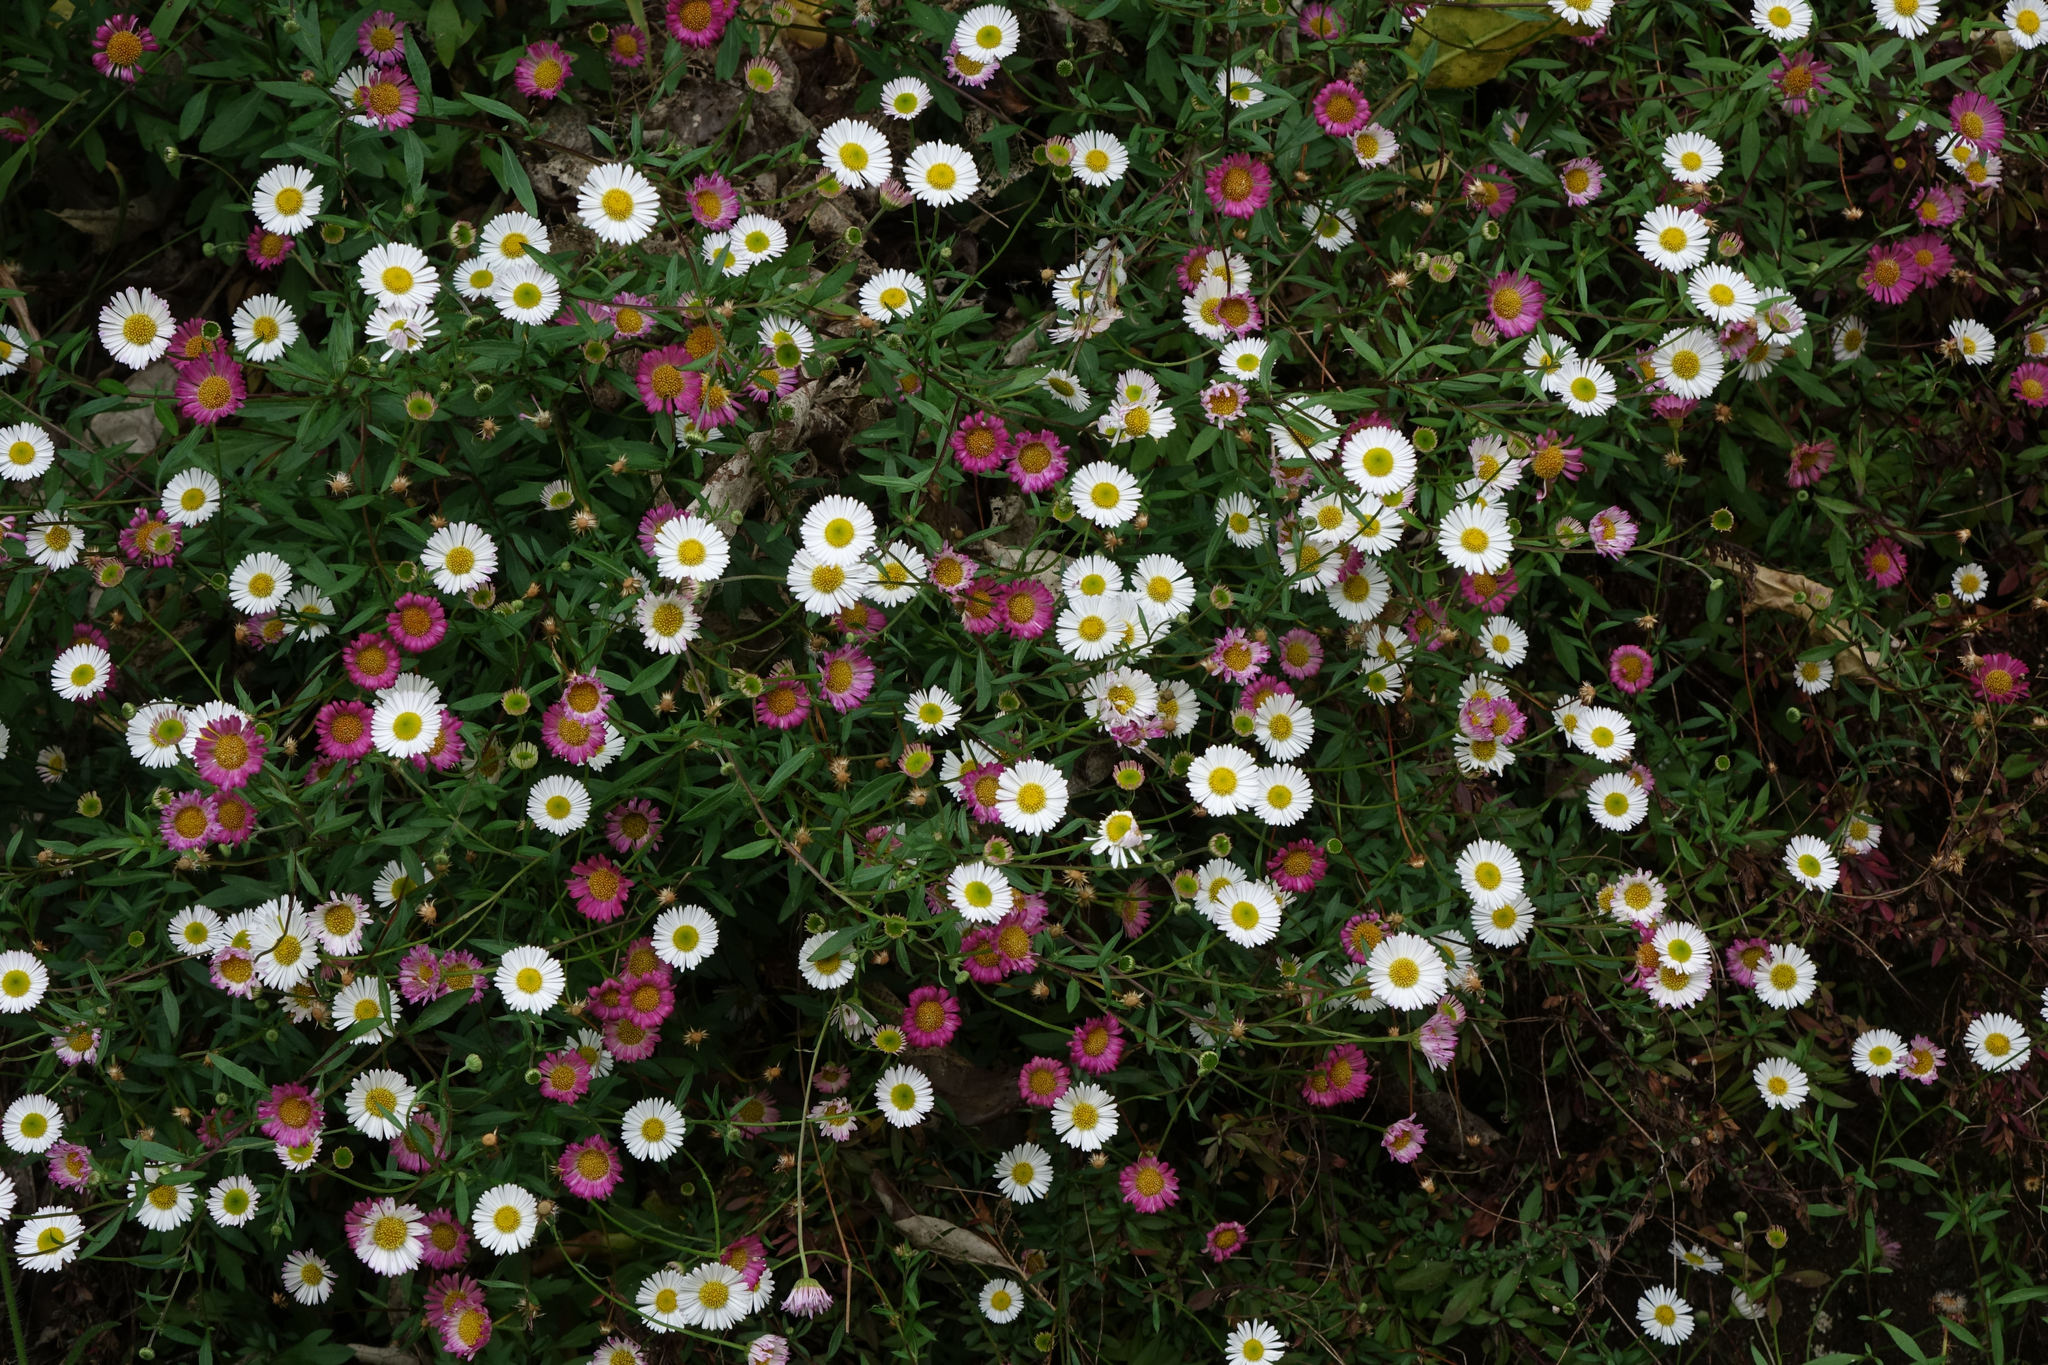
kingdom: Plantae
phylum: Tracheophyta
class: Magnoliopsida
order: Asterales
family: Asteraceae
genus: Erigeron
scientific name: Erigeron karvinskianus
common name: Mexican fleabane
